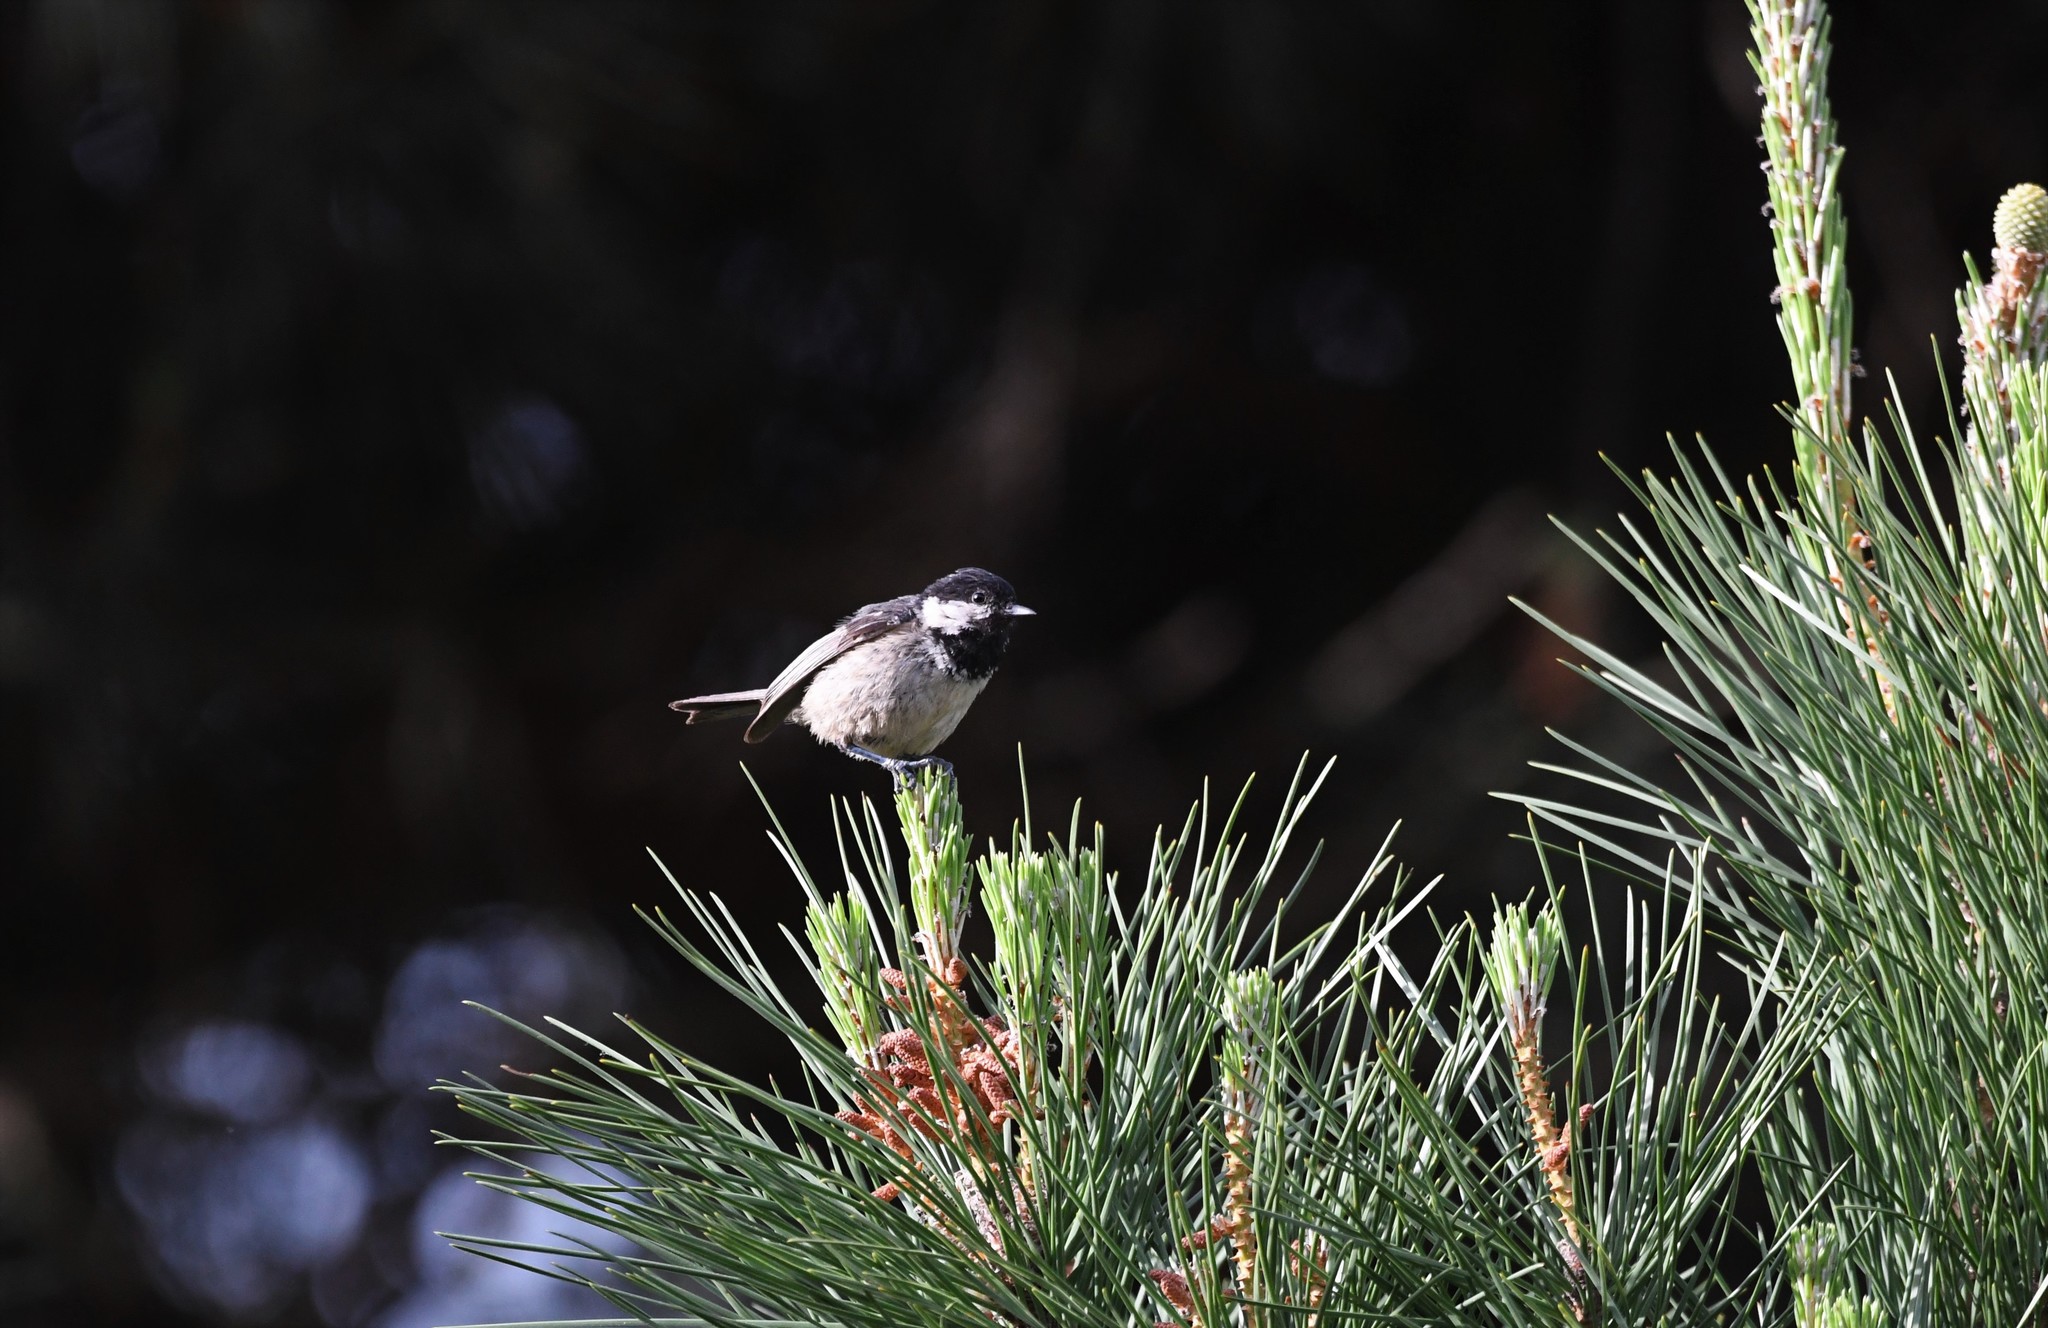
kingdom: Animalia
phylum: Chordata
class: Aves
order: Passeriformes
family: Paridae
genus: Periparus
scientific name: Periparus ater
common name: Coal tit
